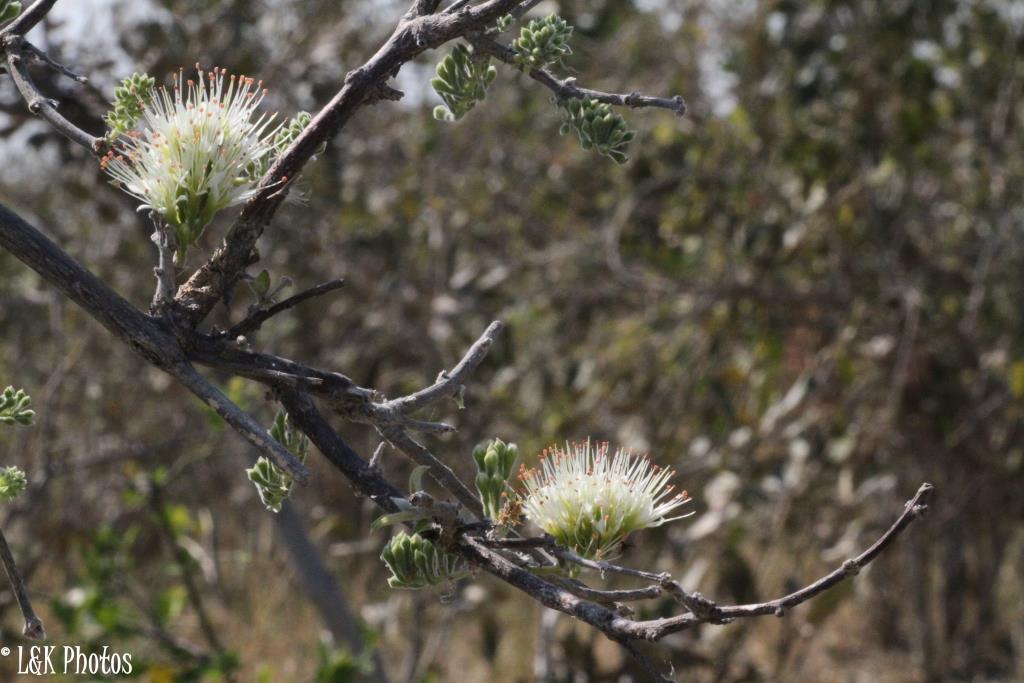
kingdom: Plantae
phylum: Tracheophyta
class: Magnoliopsida
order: Myrtales
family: Combretaceae
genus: Combretum
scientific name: Combretum mossambicense
